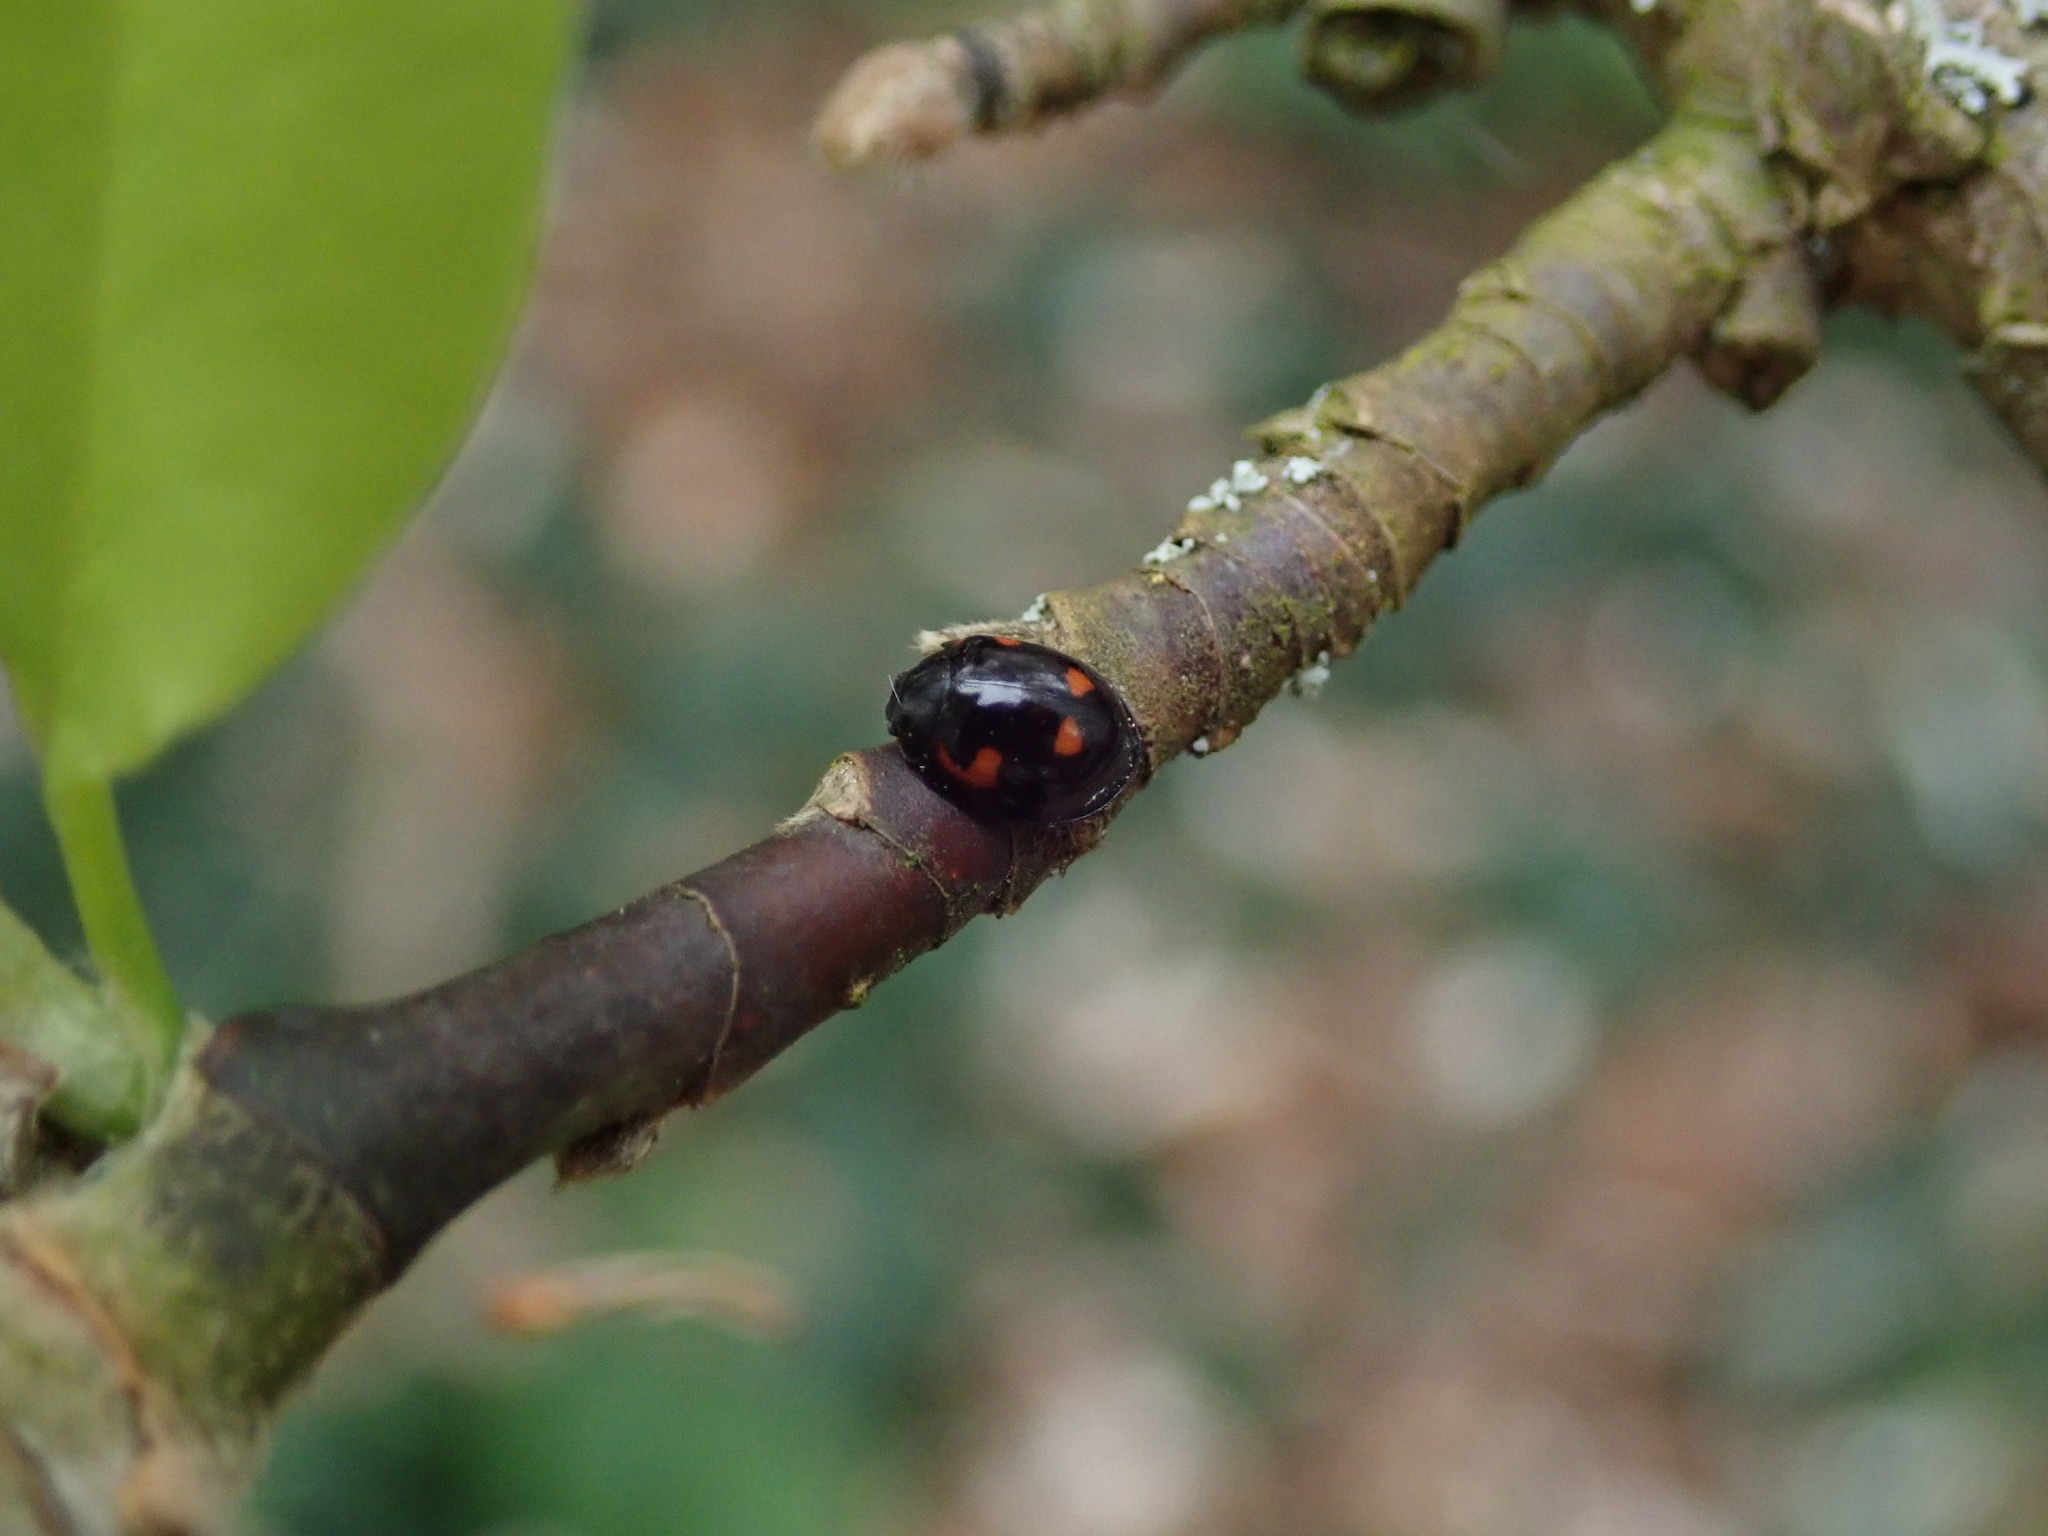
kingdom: Animalia
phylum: Arthropoda
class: Insecta
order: Coleoptera
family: Coccinellidae
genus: Brumus
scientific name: Brumus quadripustulatus
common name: Ladybird beetle
